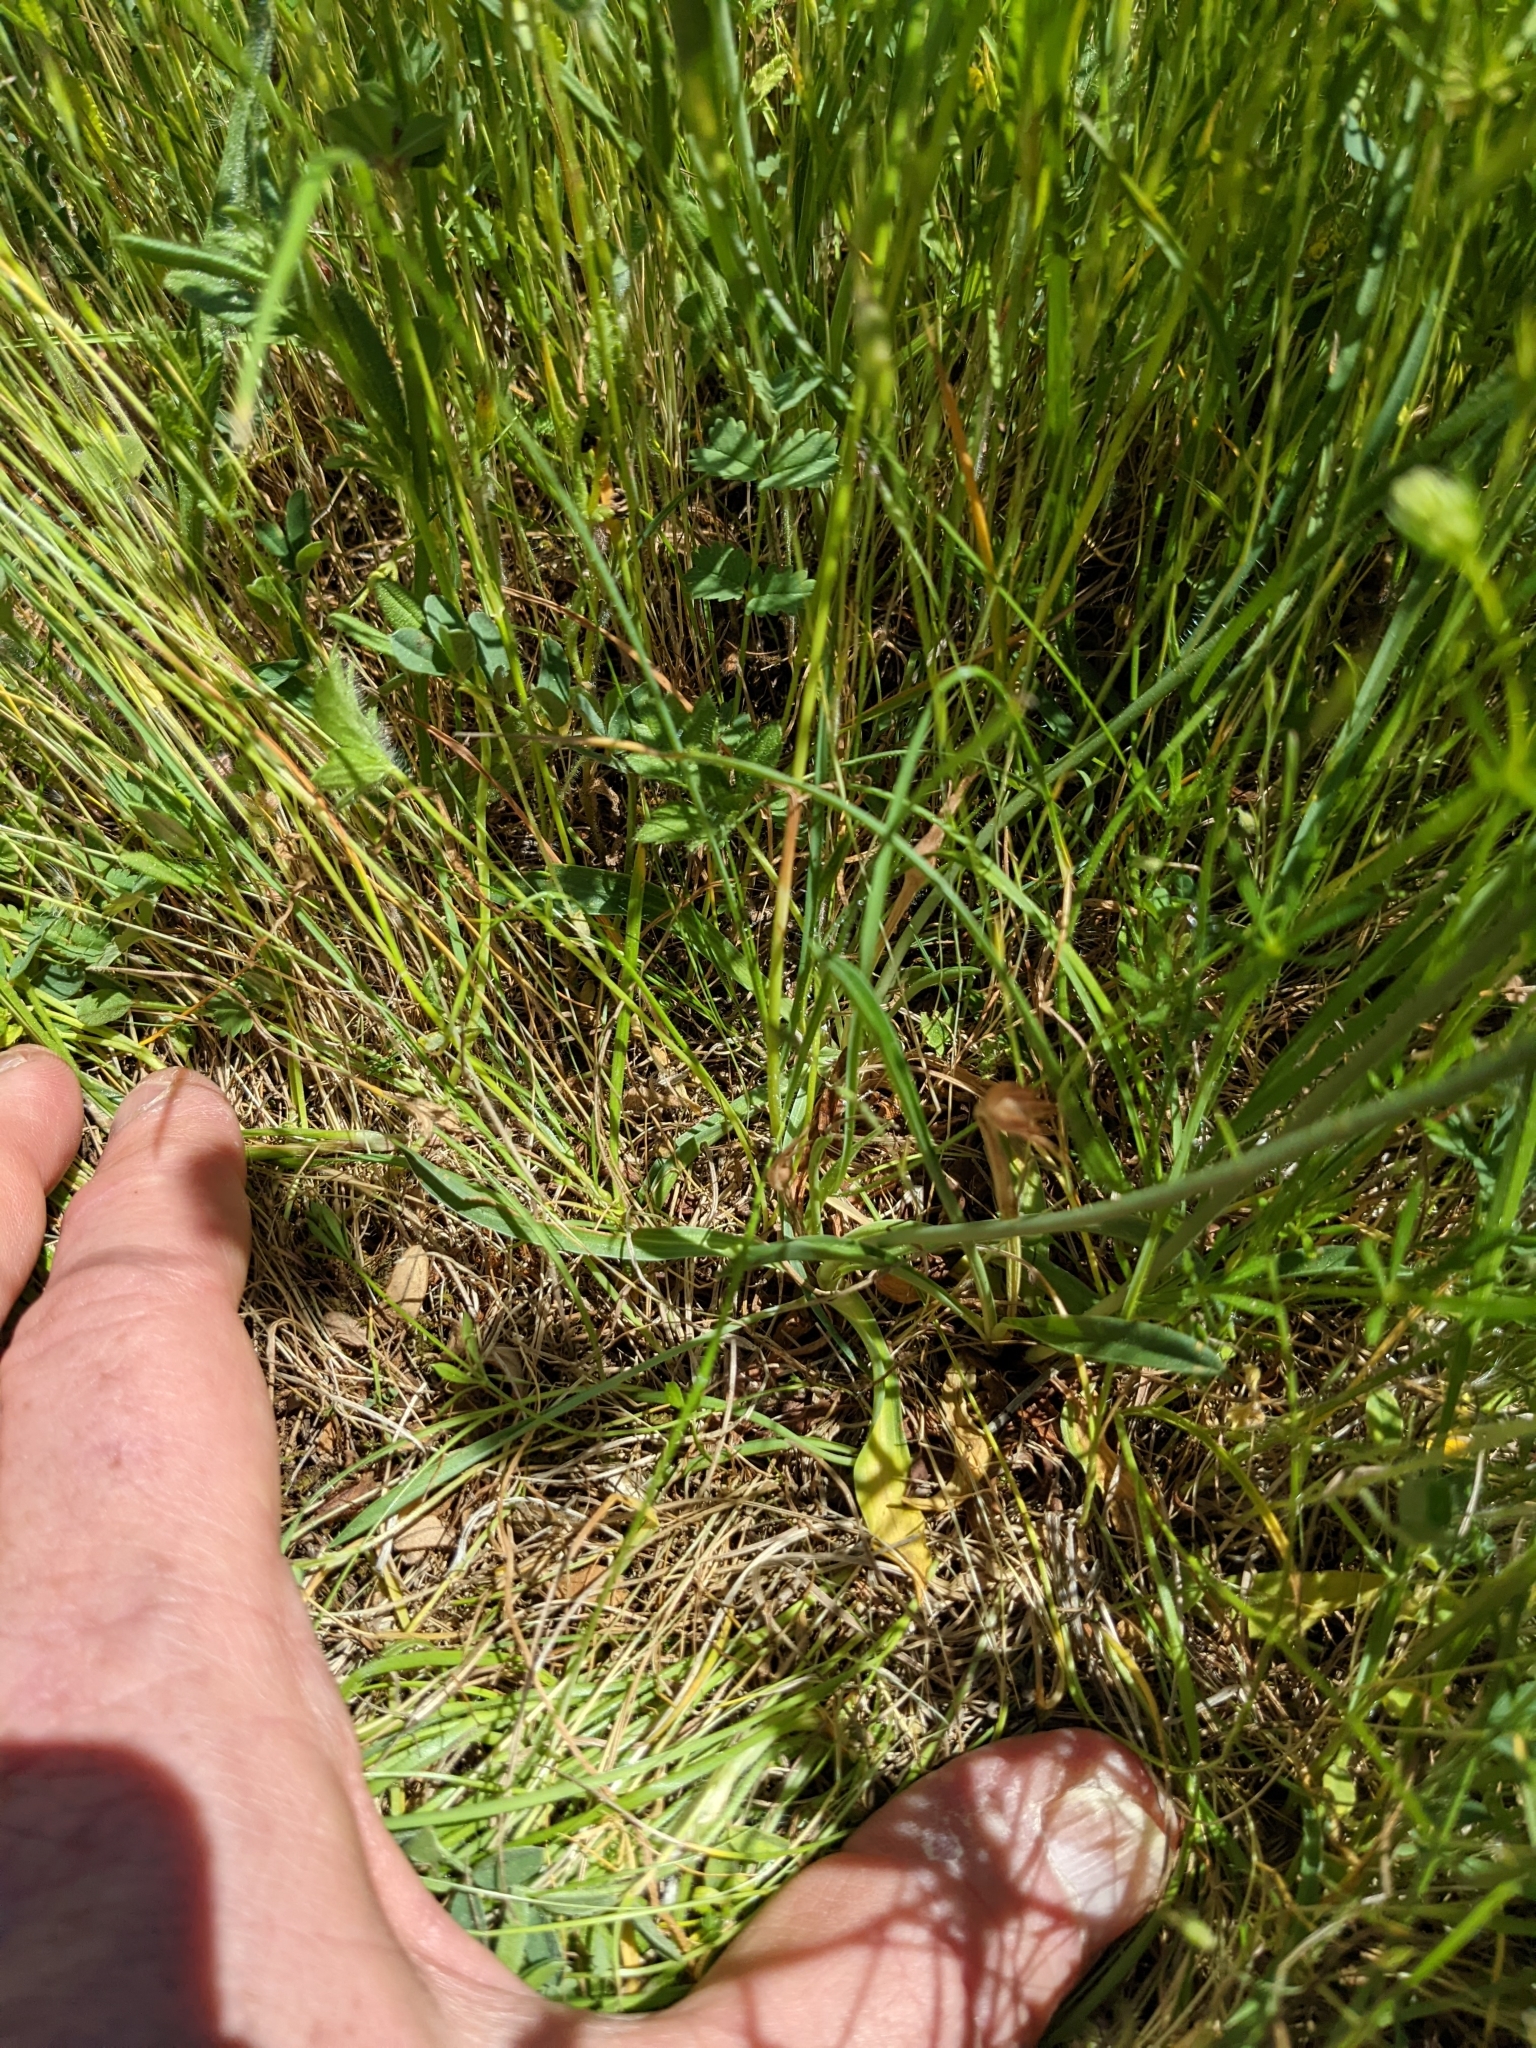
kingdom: Plantae
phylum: Tracheophyta
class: Magnoliopsida
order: Caryophyllales
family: Plumbaginaceae
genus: Armeria
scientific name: Armeria arenaria
